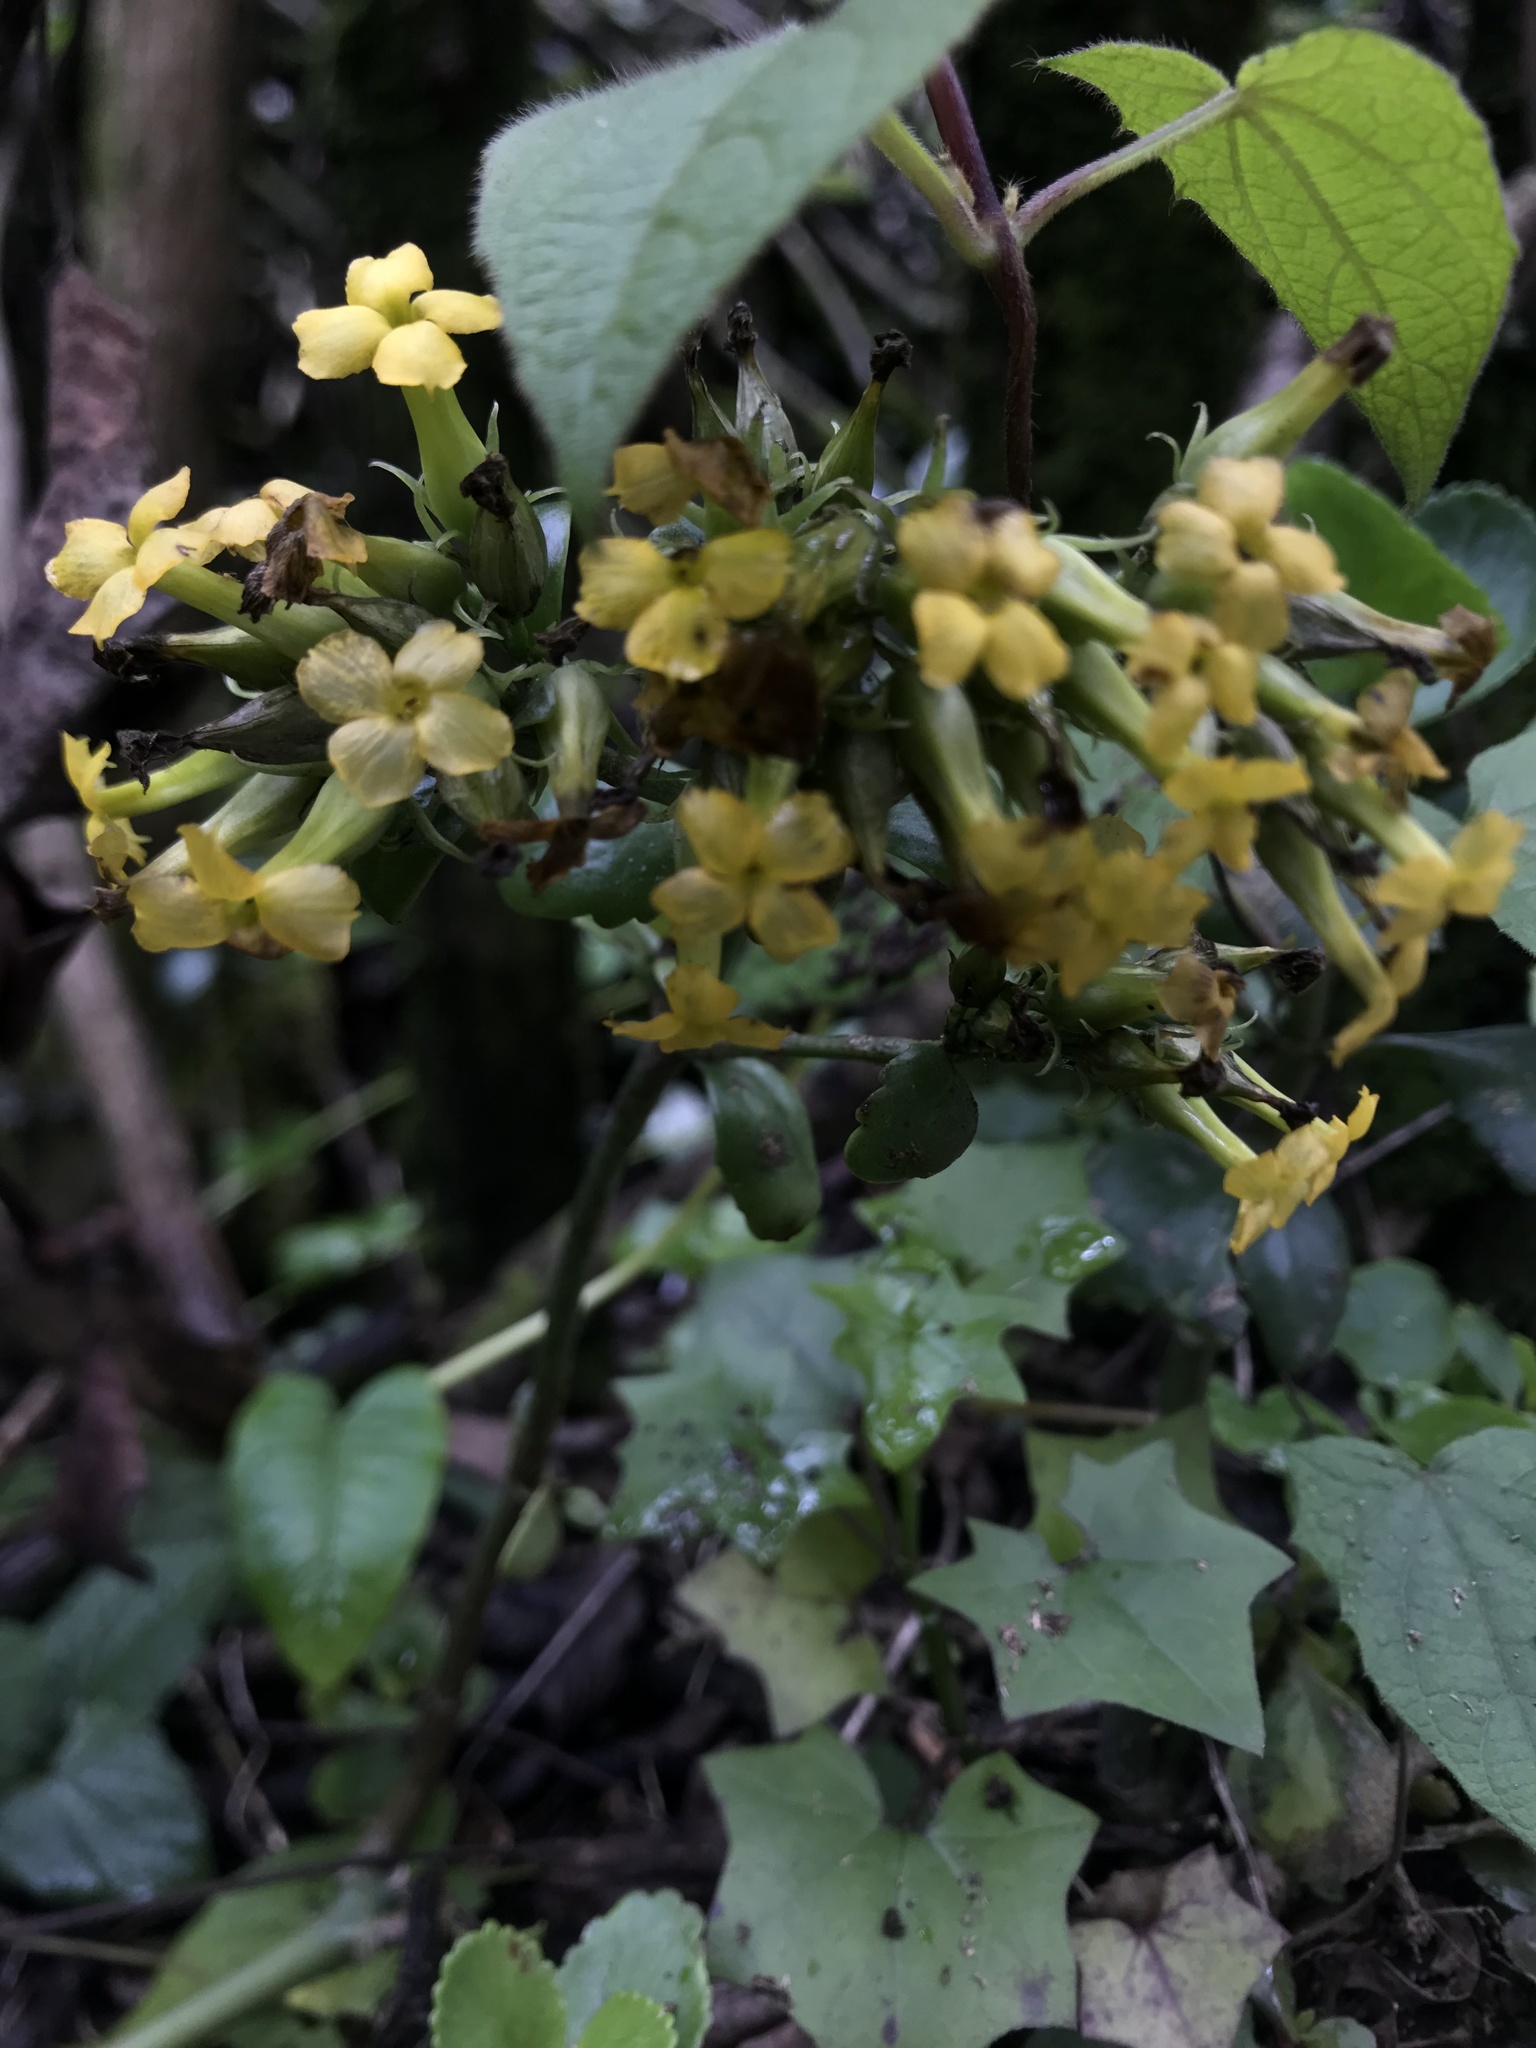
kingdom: Plantae
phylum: Tracheophyta
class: Magnoliopsida
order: Saxifragales
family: Crassulaceae
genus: Kalanchoe
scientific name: Kalanchoe densiflora
